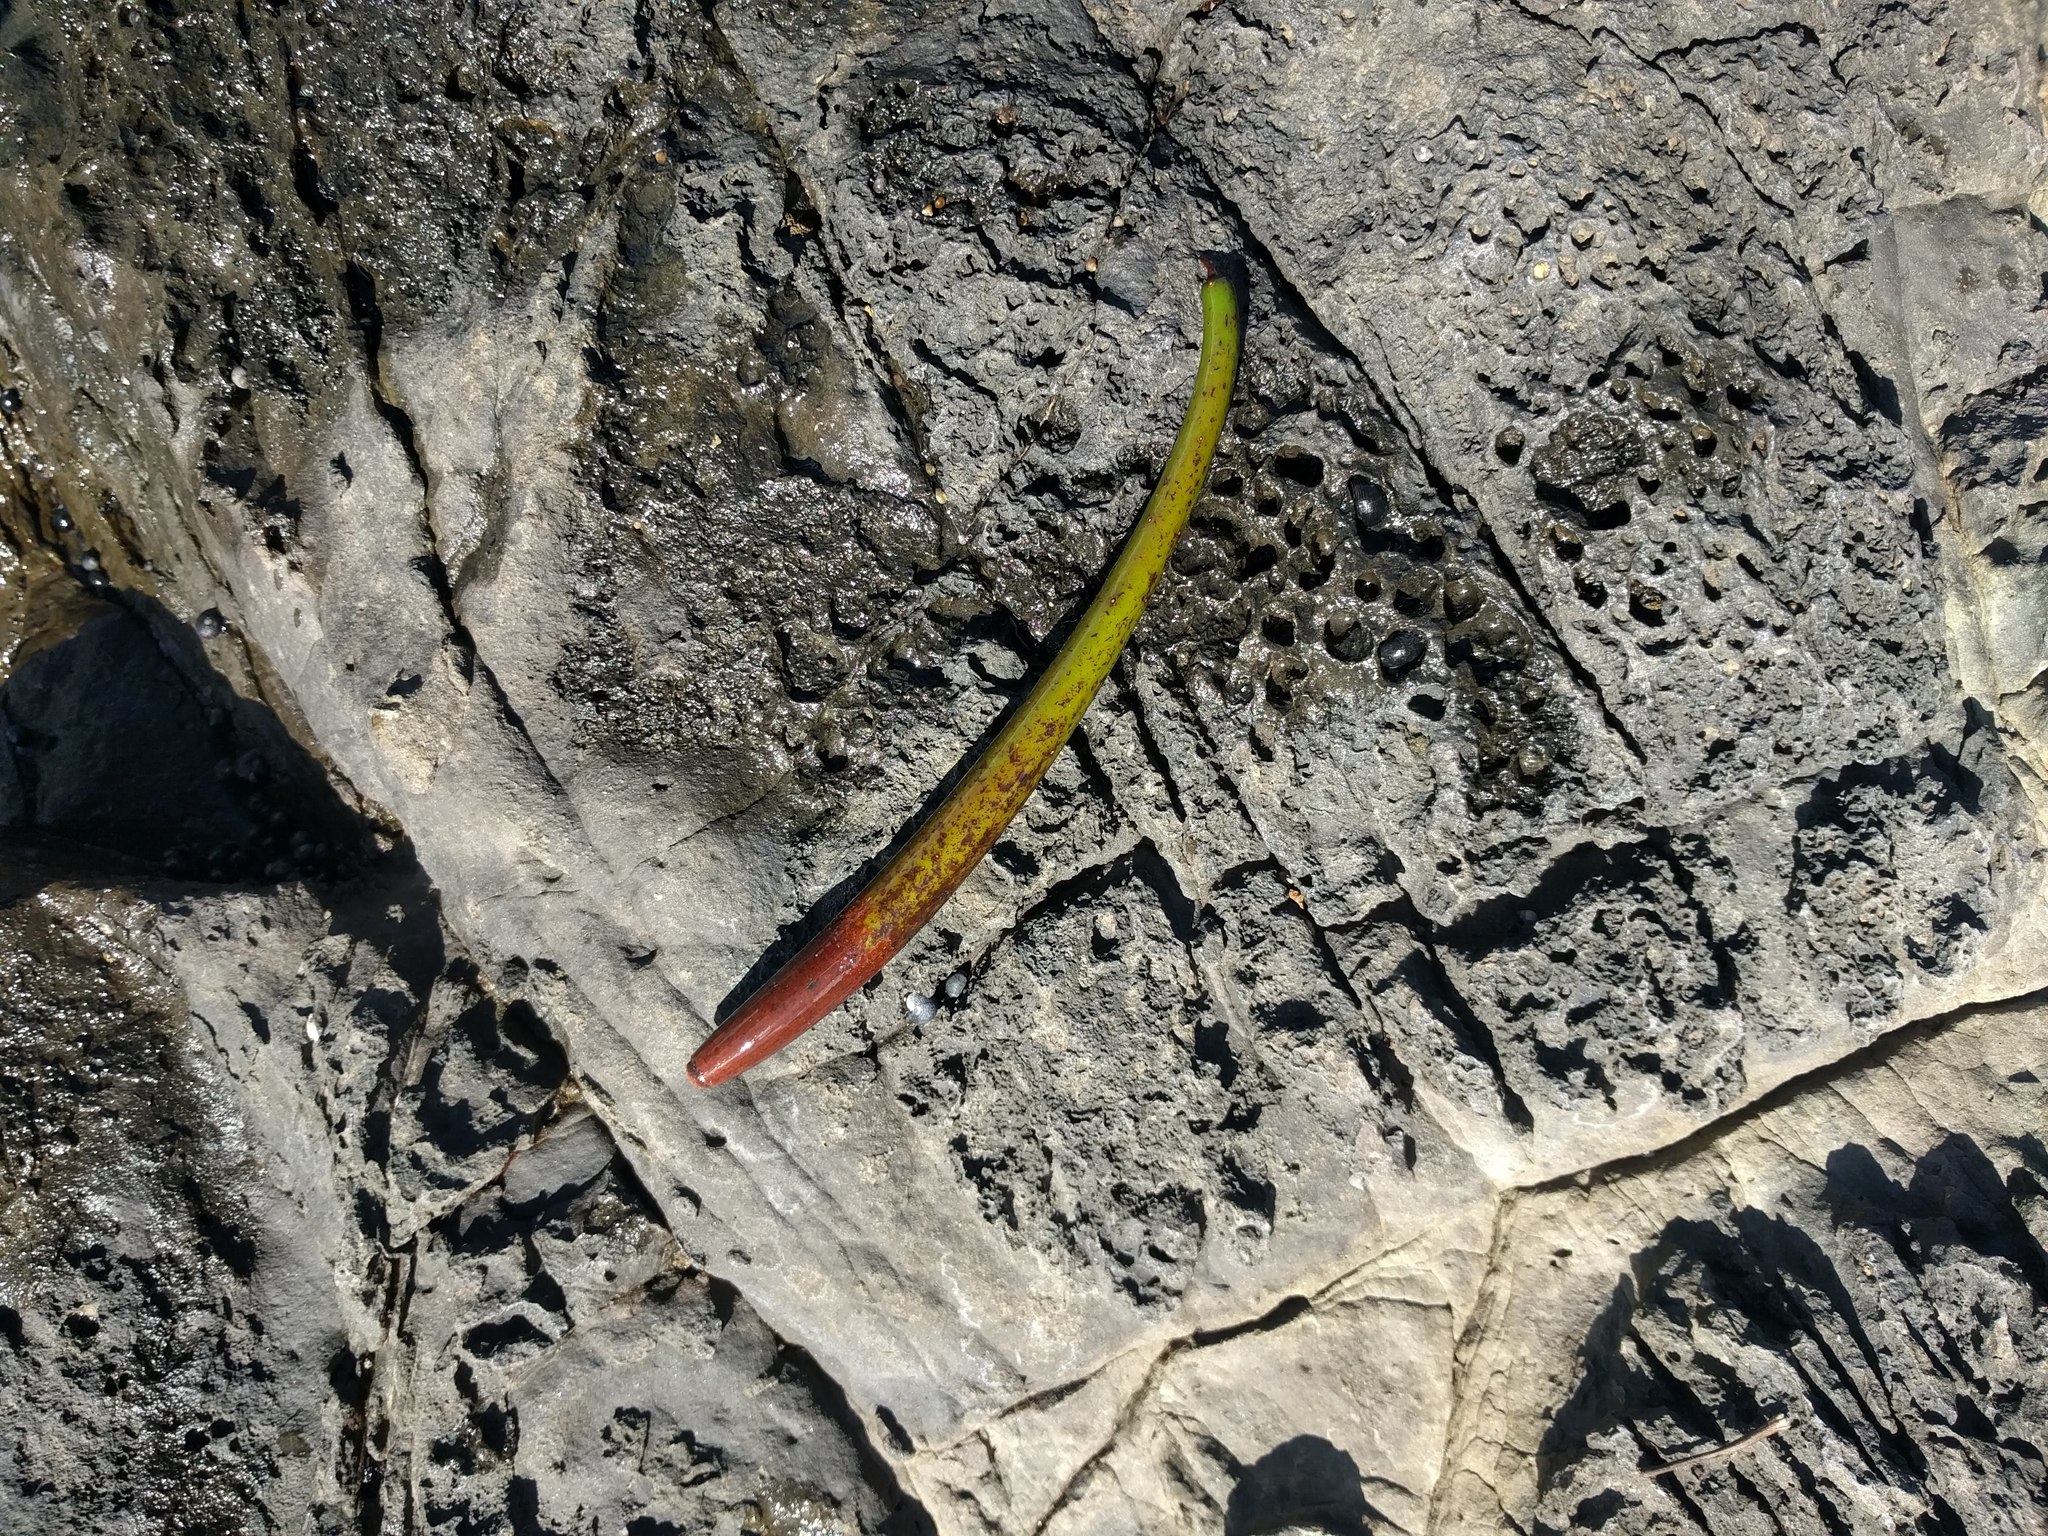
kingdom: Plantae
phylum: Tracheophyta
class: Magnoliopsida
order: Malpighiales
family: Rhizophoraceae
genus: Rhizophora
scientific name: Rhizophora mangle
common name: Red mangrove
